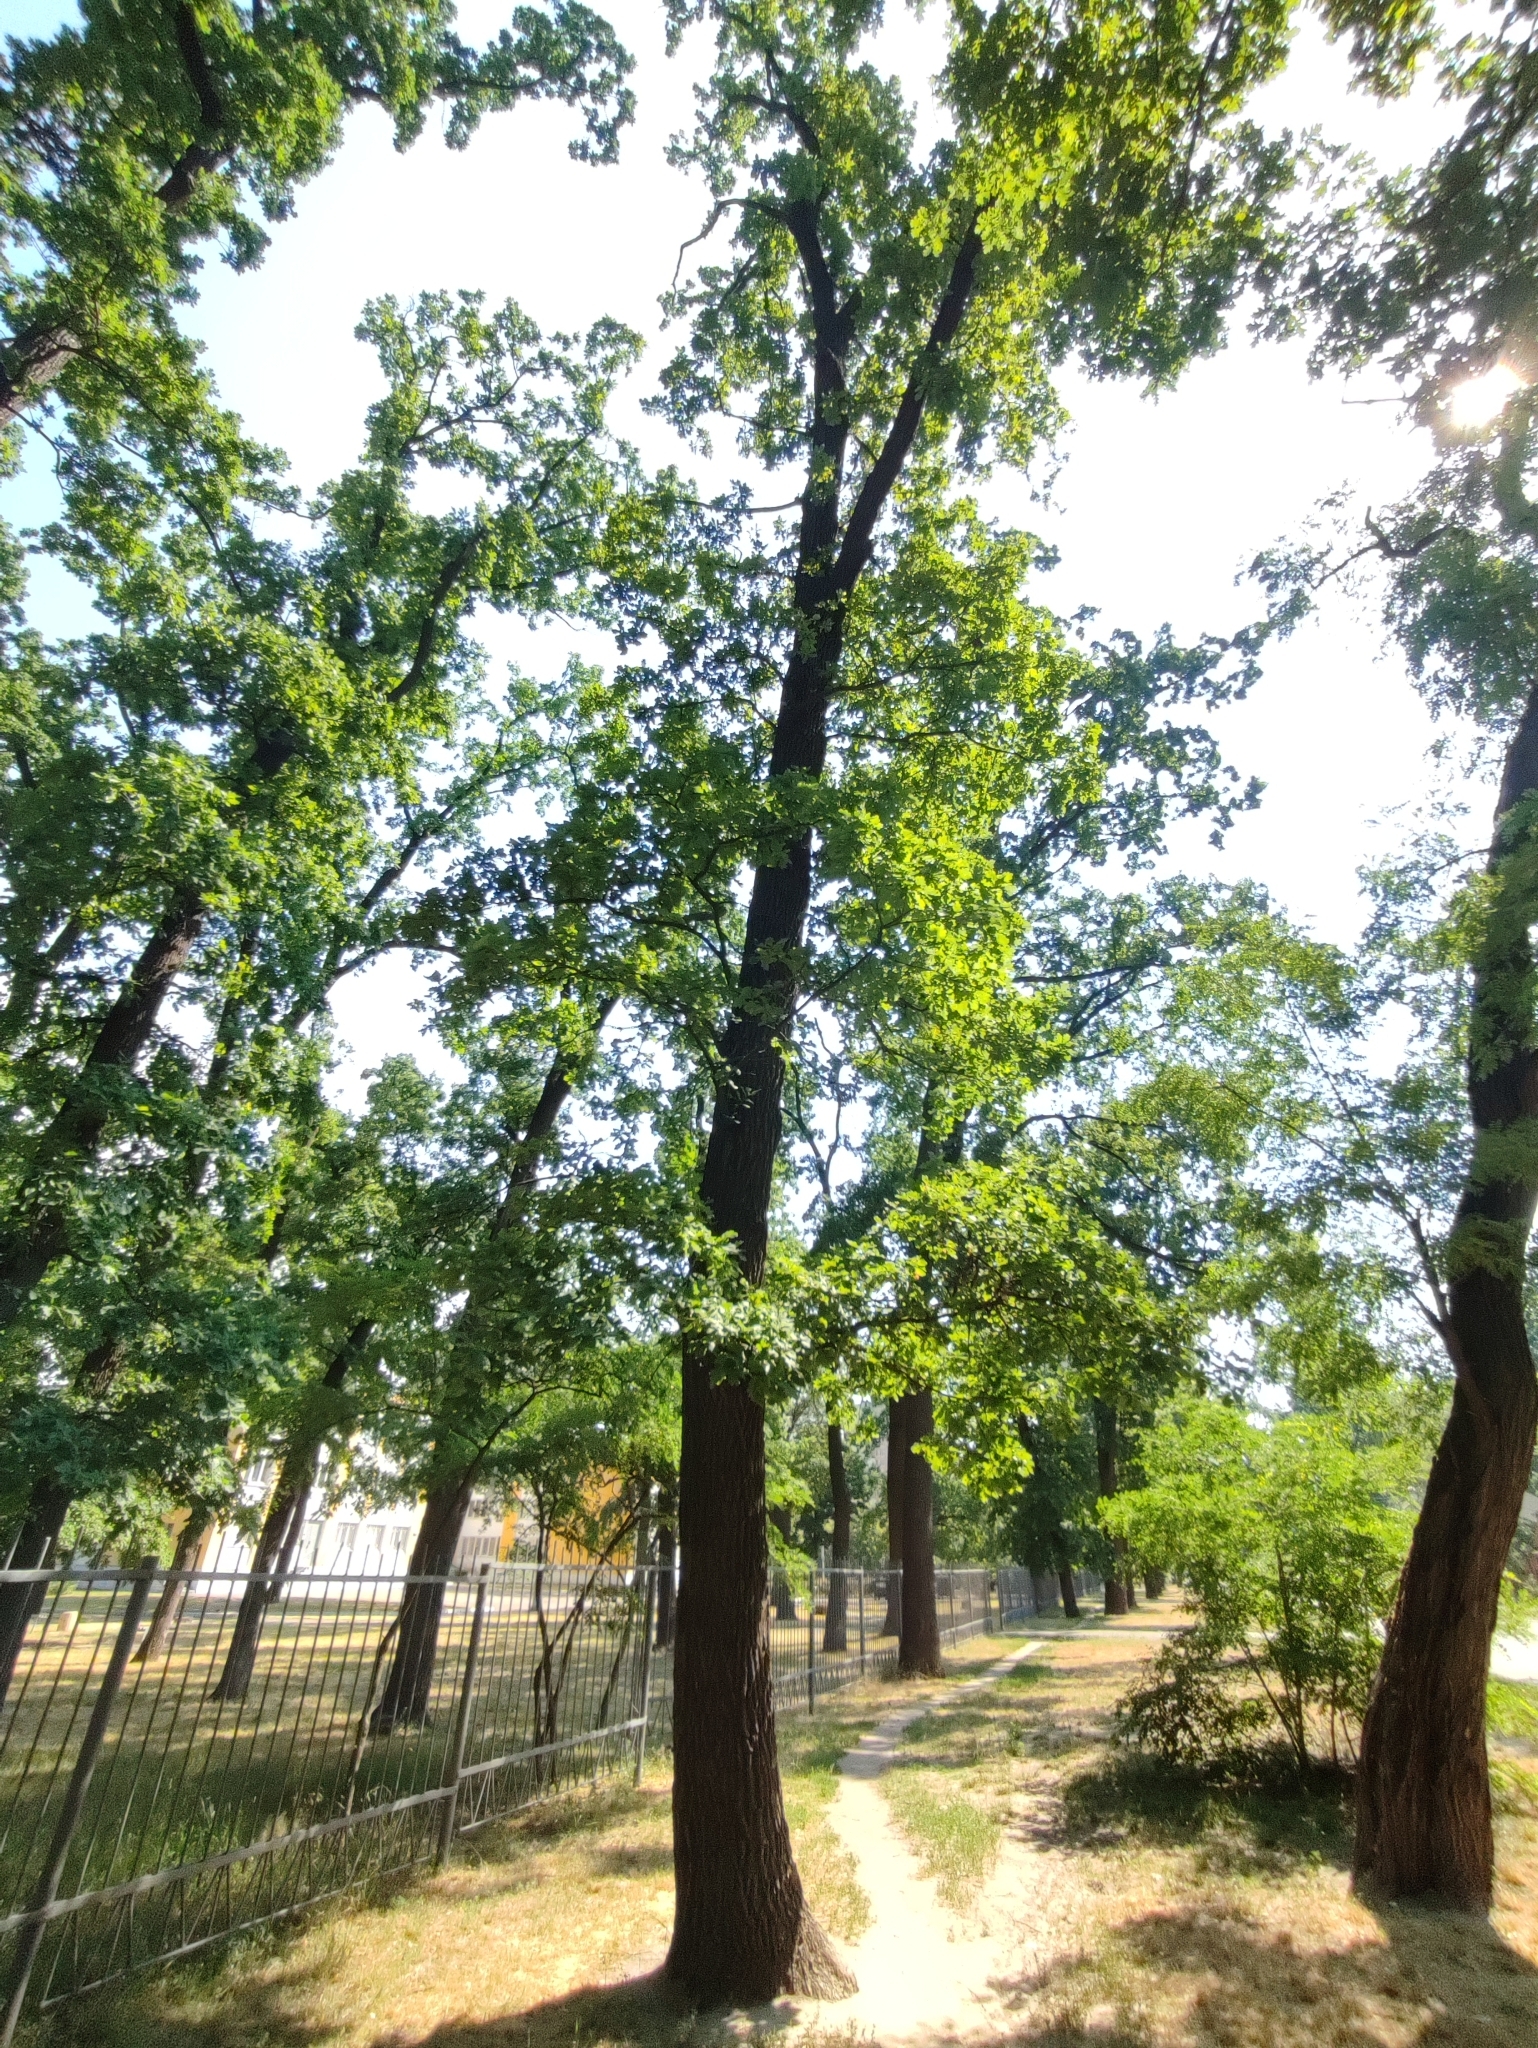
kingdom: Plantae
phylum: Tracheophyta
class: Magnoliopsida
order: Fagales
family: Fagaceae
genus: Quercus
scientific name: Quercus robur
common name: Pedunculate oak
